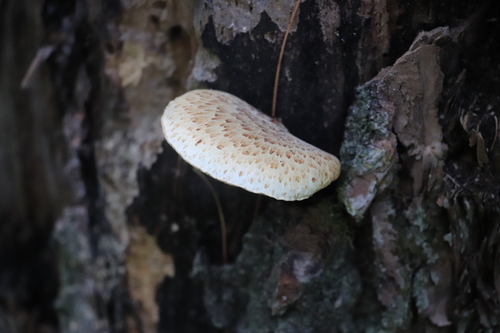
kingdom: Fungi
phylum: Basidiomycota
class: Agaricomycetes
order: Polyporales
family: Polyporaceae
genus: Cerioporus
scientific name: Cerioporus squamosus
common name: Dryad's saddle
